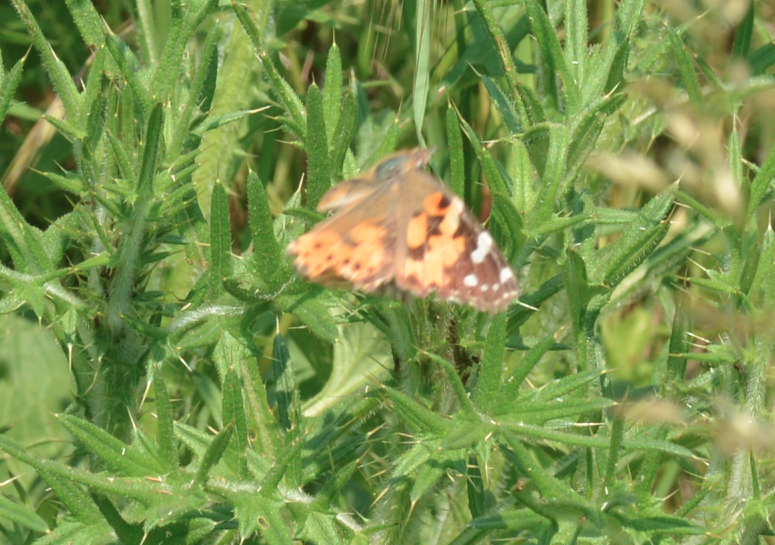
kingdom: Animalia
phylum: Arthropoda
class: Insecta
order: Lepidoptera
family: Nymphalidae
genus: Vanessa
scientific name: Vanessa cardui
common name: Painted lady
